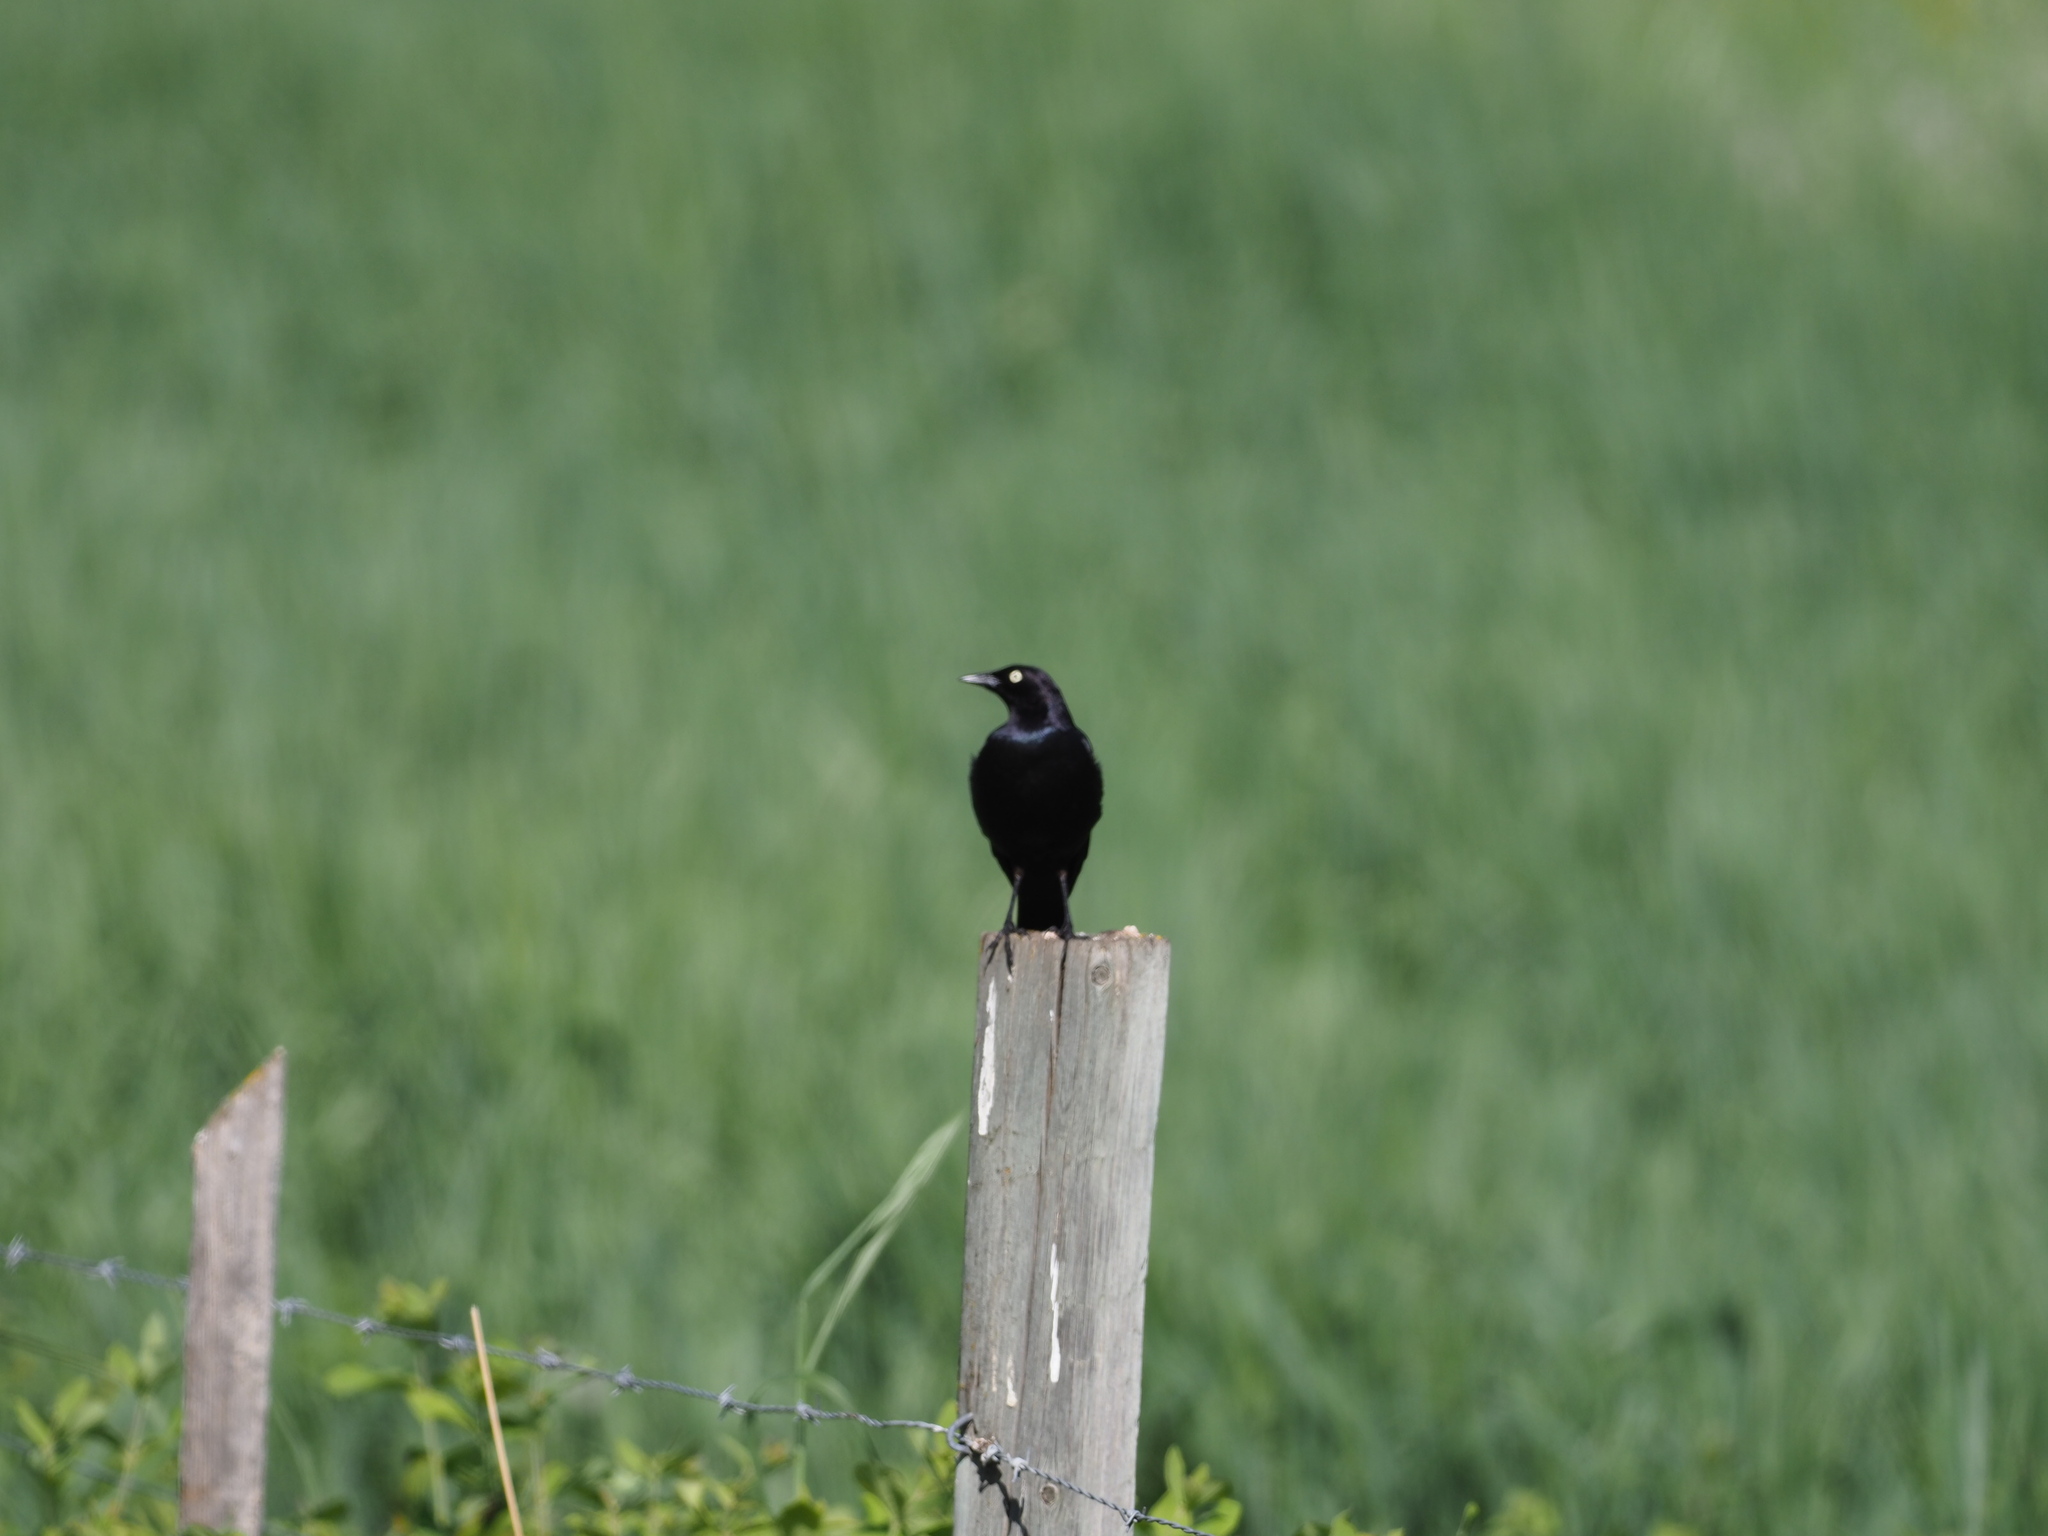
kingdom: Animalia
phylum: Chordata
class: Aves
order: Passeriformes
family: Icteridae
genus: Euphagus
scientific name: Euphagus cyanocephalus
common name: Brewer's blackbird
